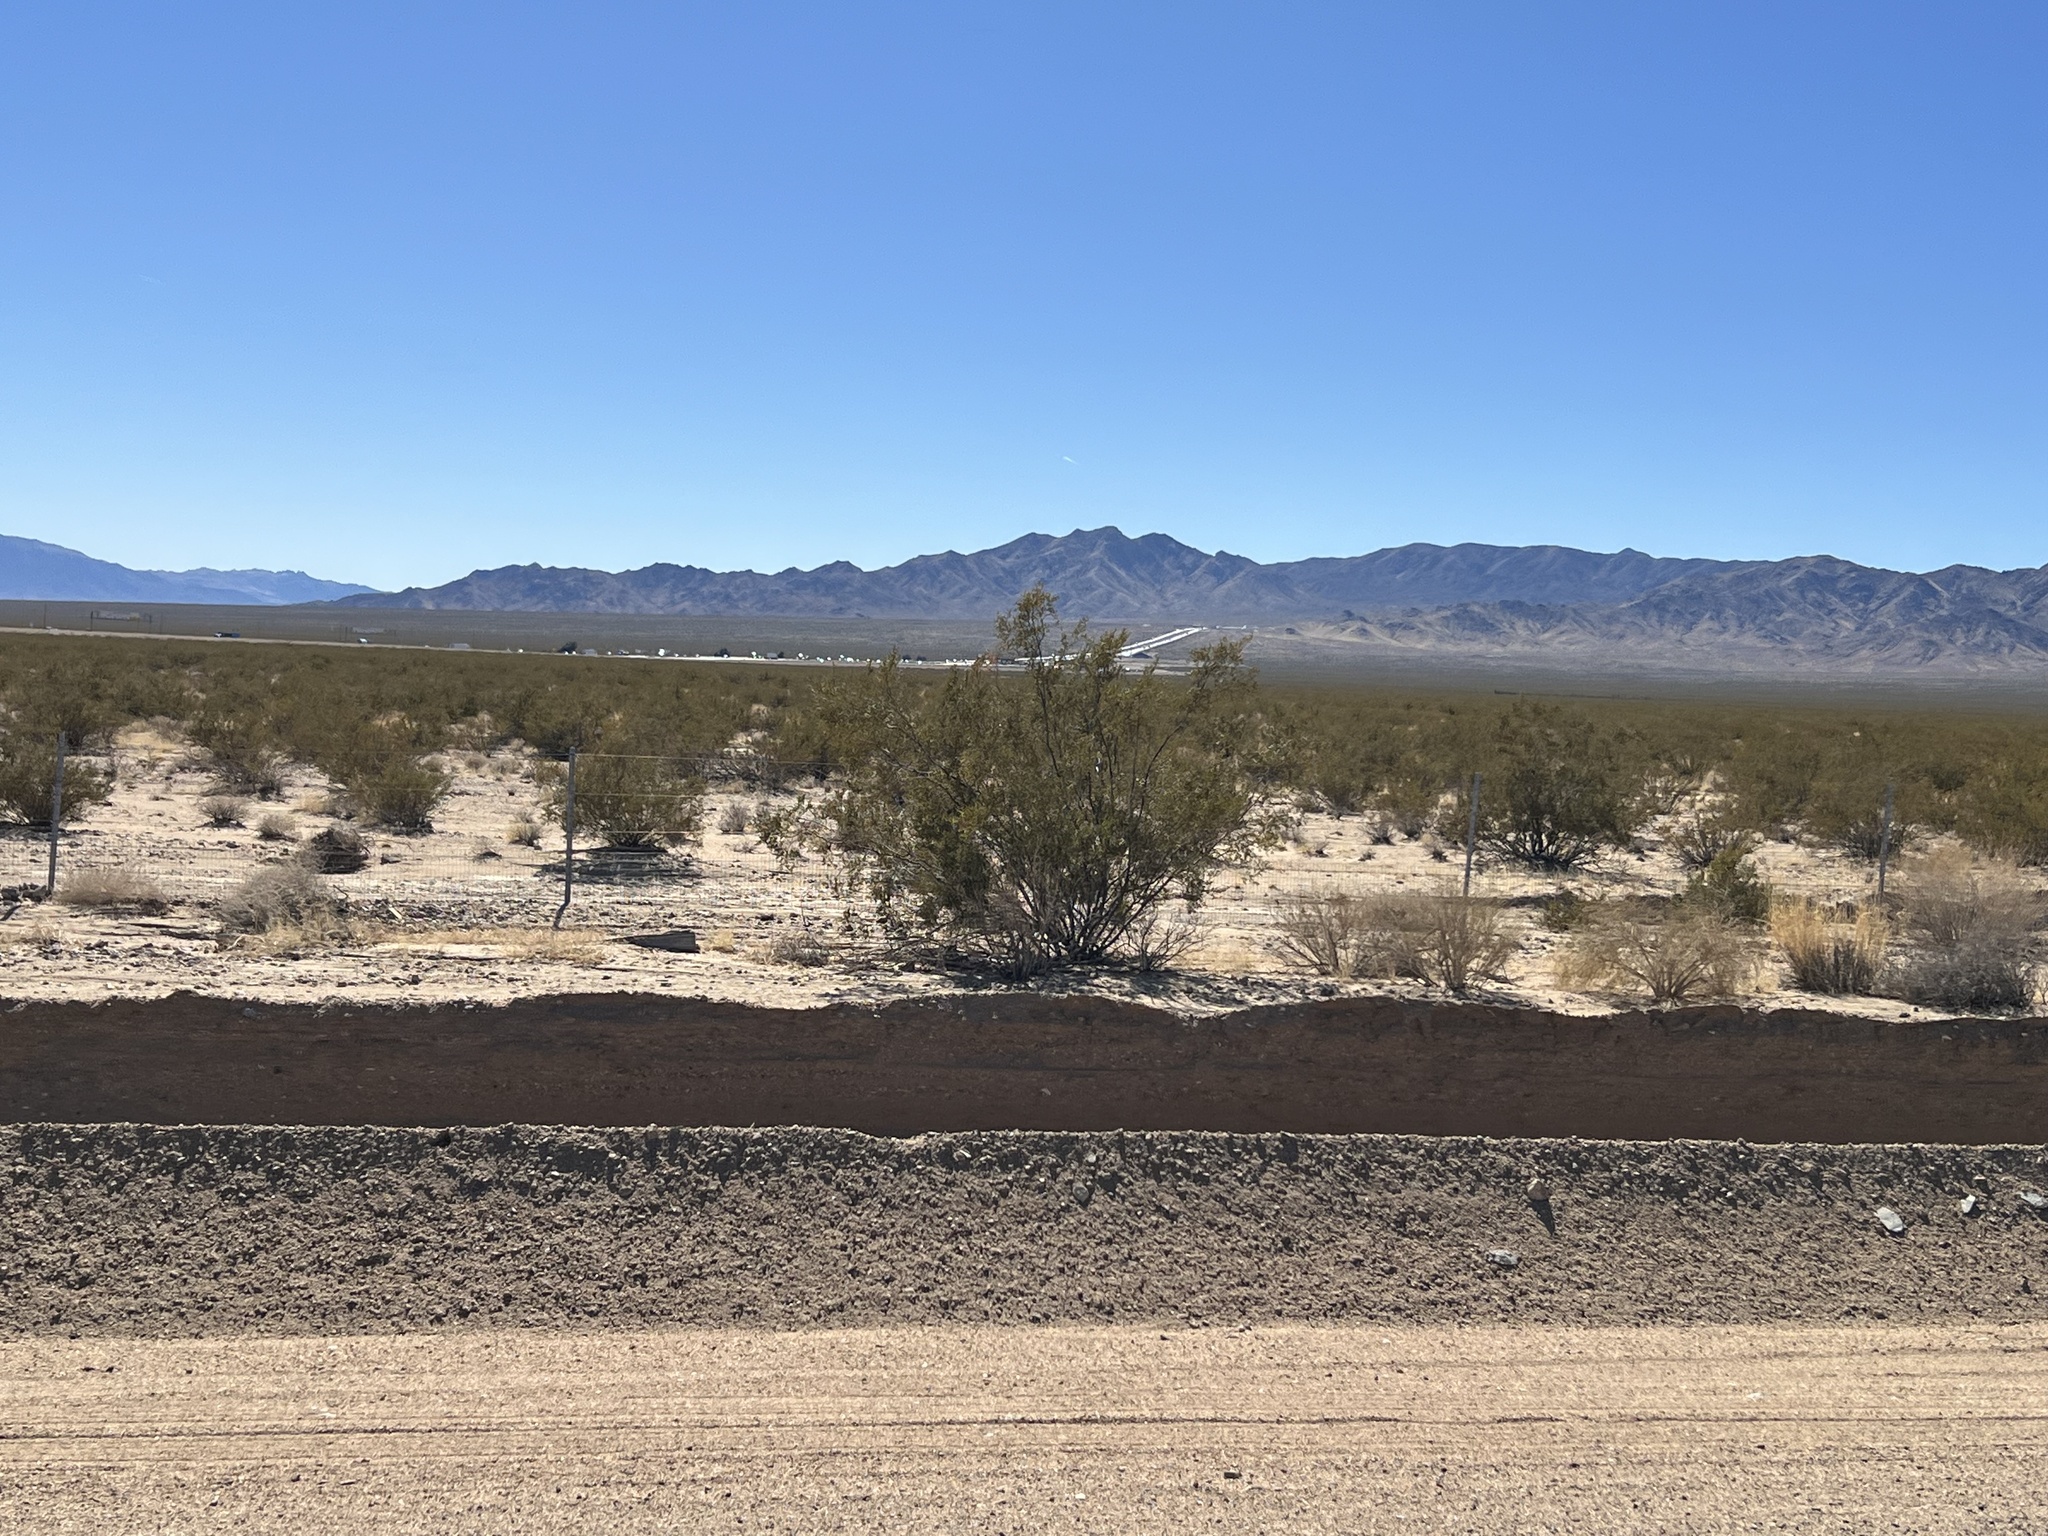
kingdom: Plantae
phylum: Tracheophyta
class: Magnoliopsida
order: Zygophyllales
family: Zygophyllaceae
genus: Larrea
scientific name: Larrea tridentata
